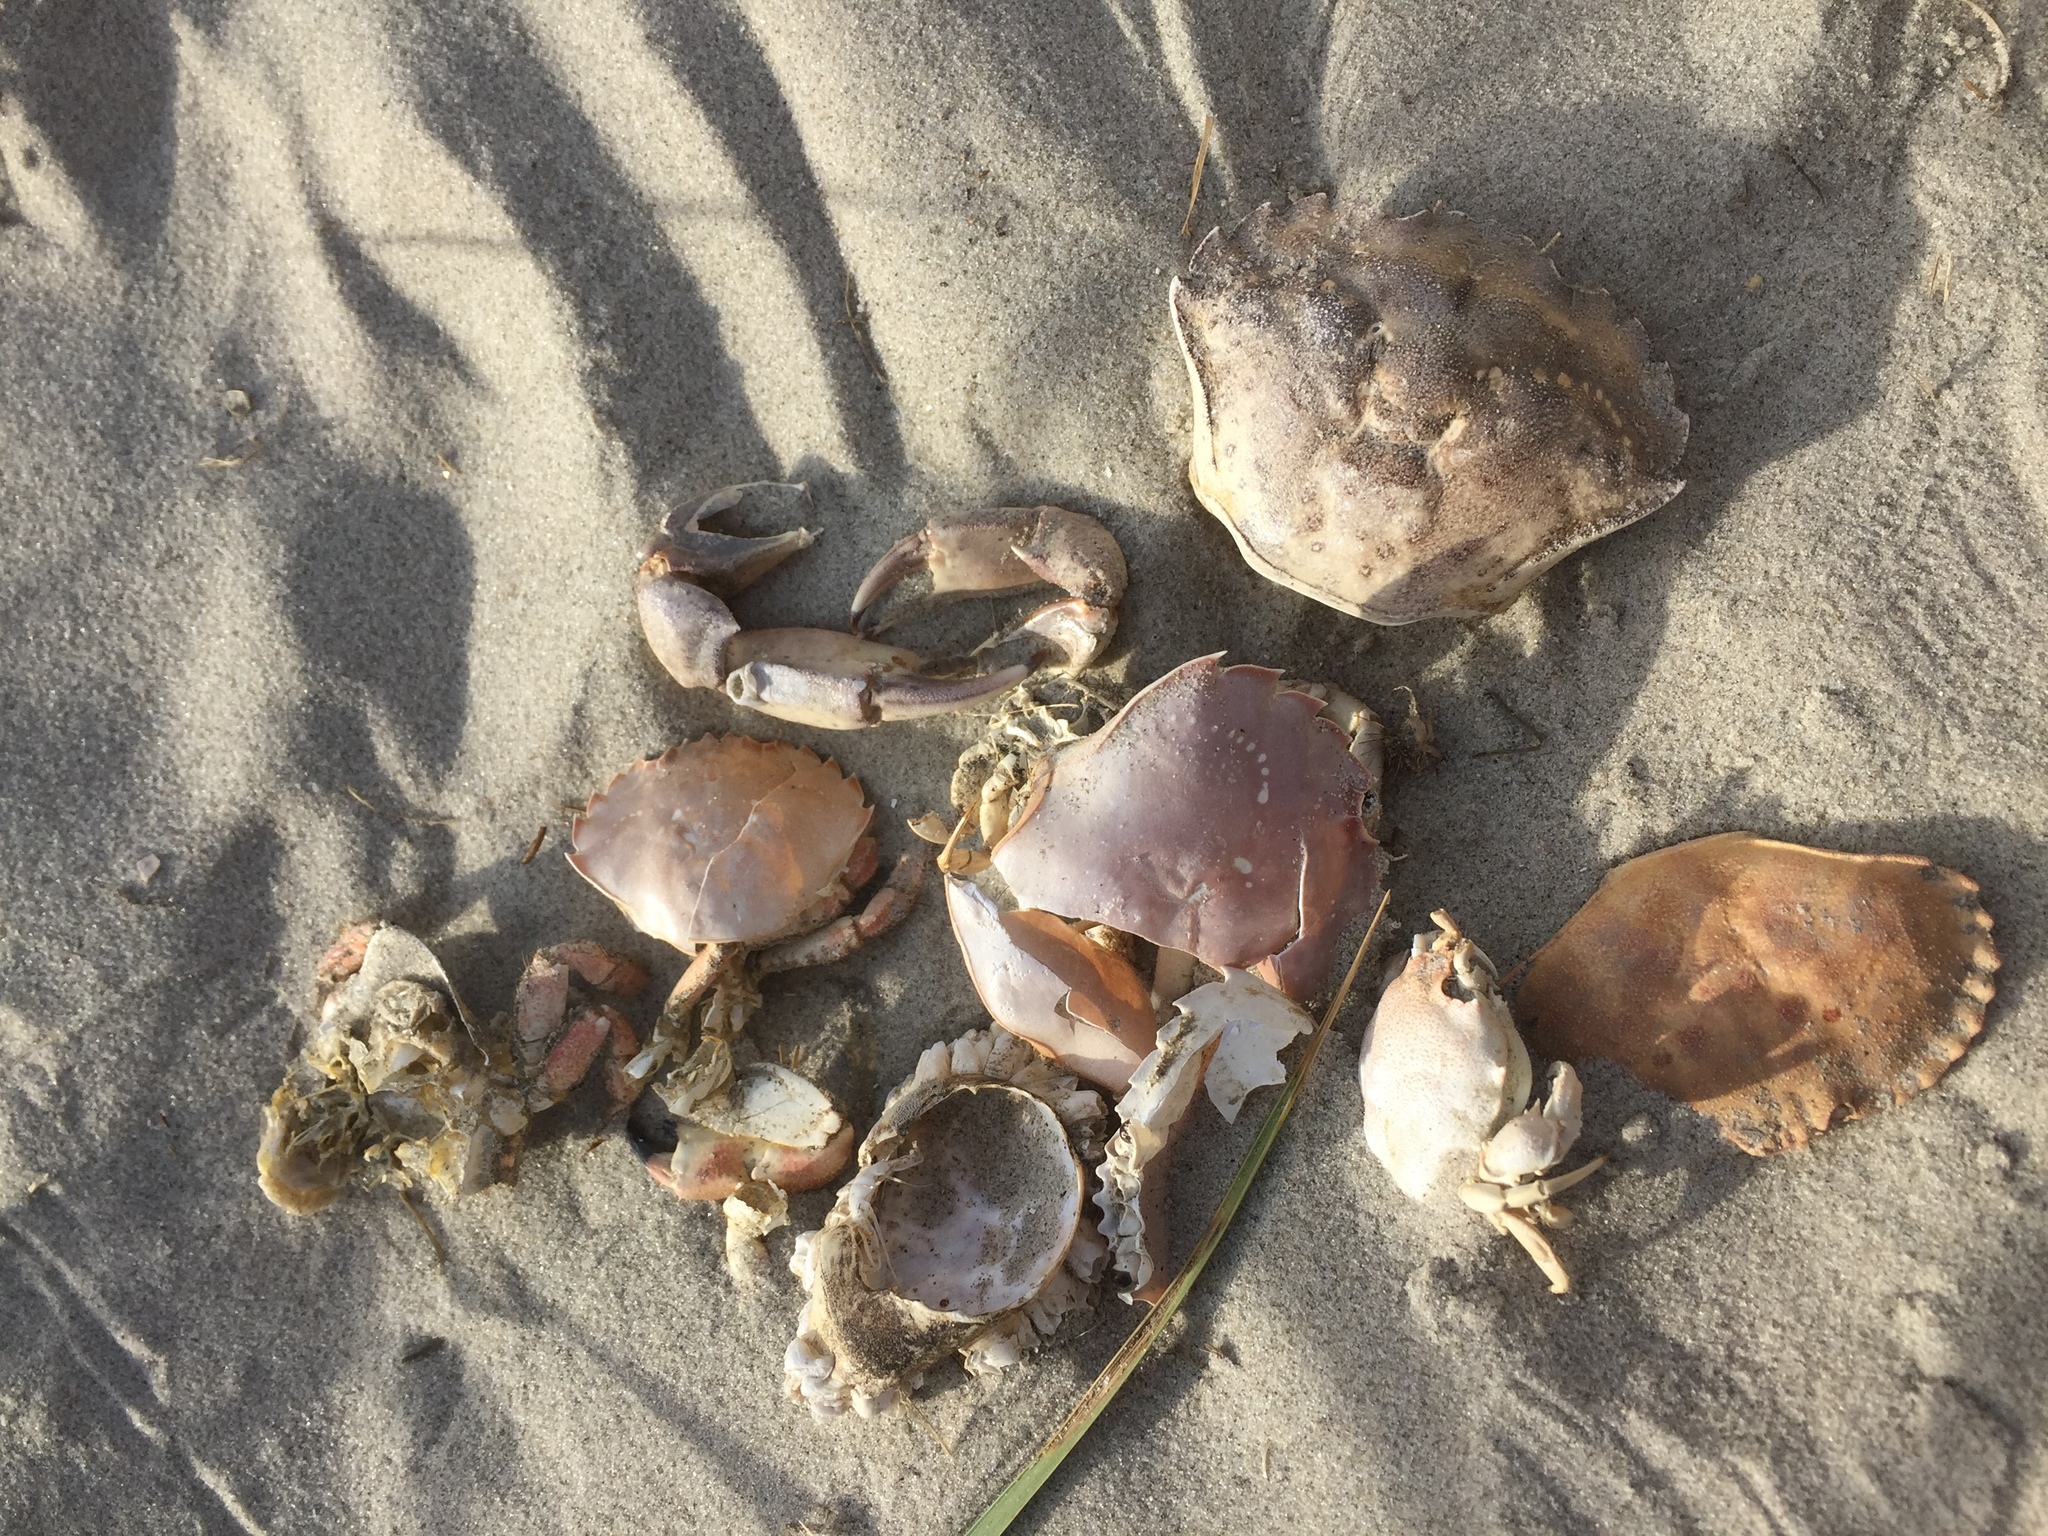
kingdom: Animalia
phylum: Arthropoda
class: Malacostraca
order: Decapoda
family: Corystidae
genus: Corystes
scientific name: Corystes cassivelaunus
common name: Masked crab
